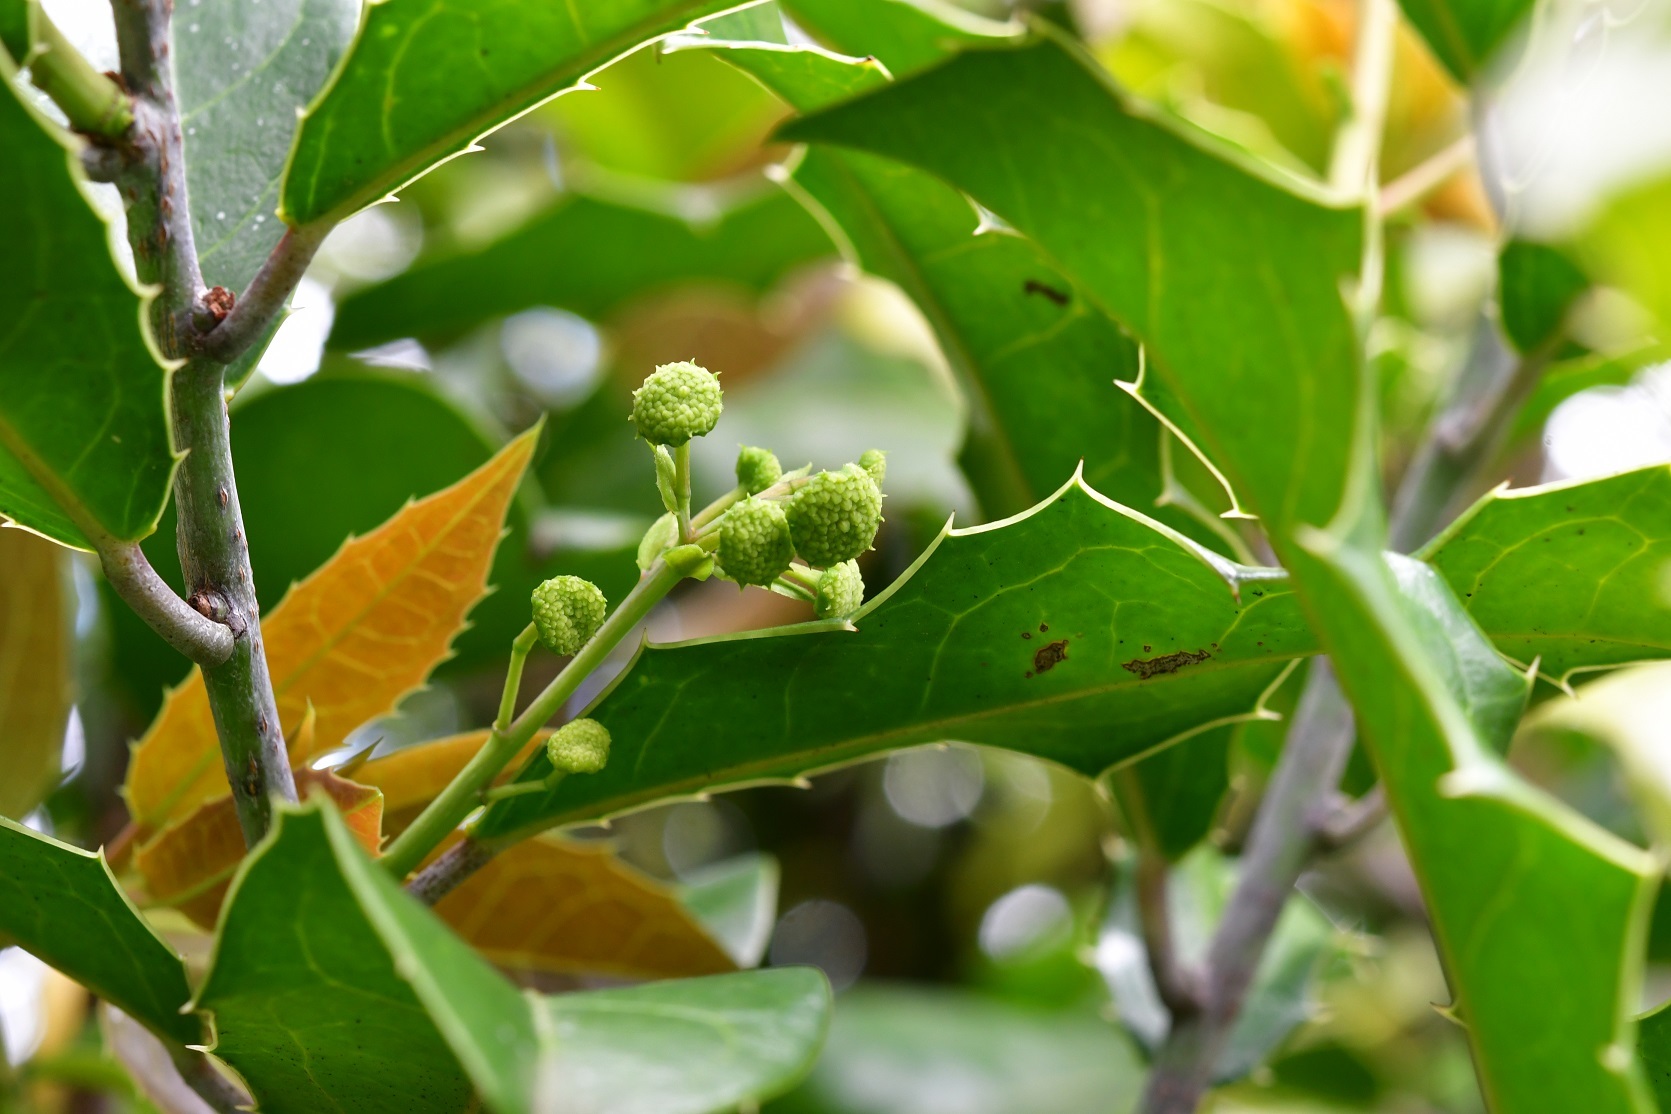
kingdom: Plantae
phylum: Tracheophyta
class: Magnoliopsida
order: Malpighiales
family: Salicaceae
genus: Olmediella
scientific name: Olmediella betschleriana
